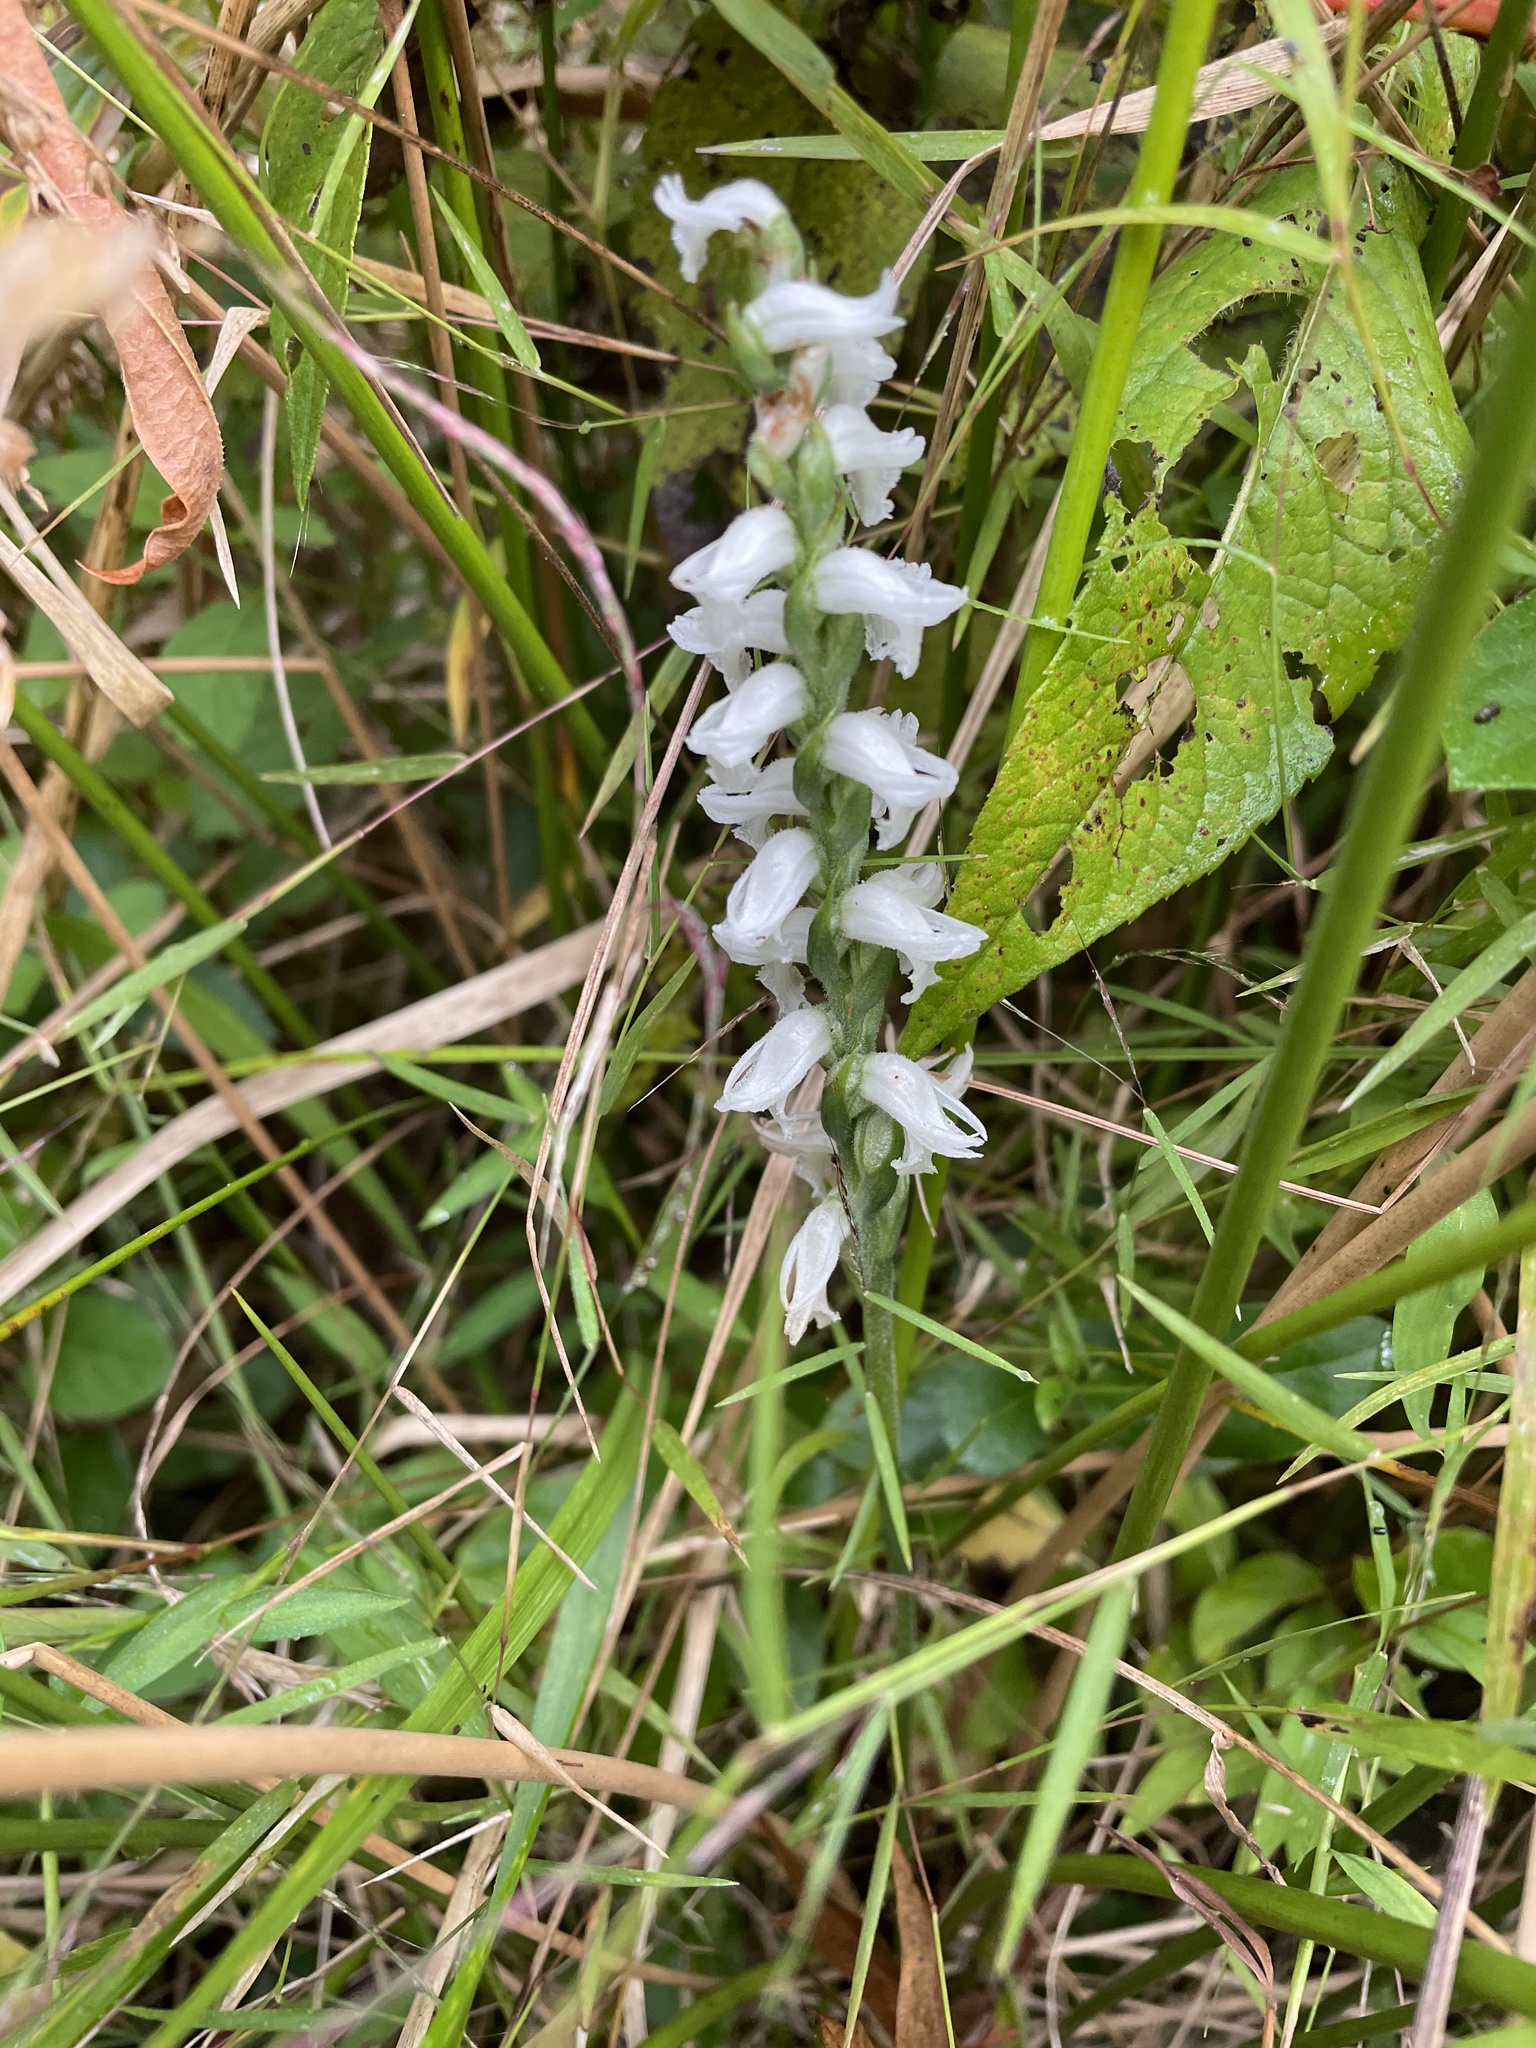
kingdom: Plantae
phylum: Tracheophyta
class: Liliopsida
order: Asparagales
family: Orchidaceae
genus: Spiranthes
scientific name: Spiranthes cernua
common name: Dropping ladies'-tresses
